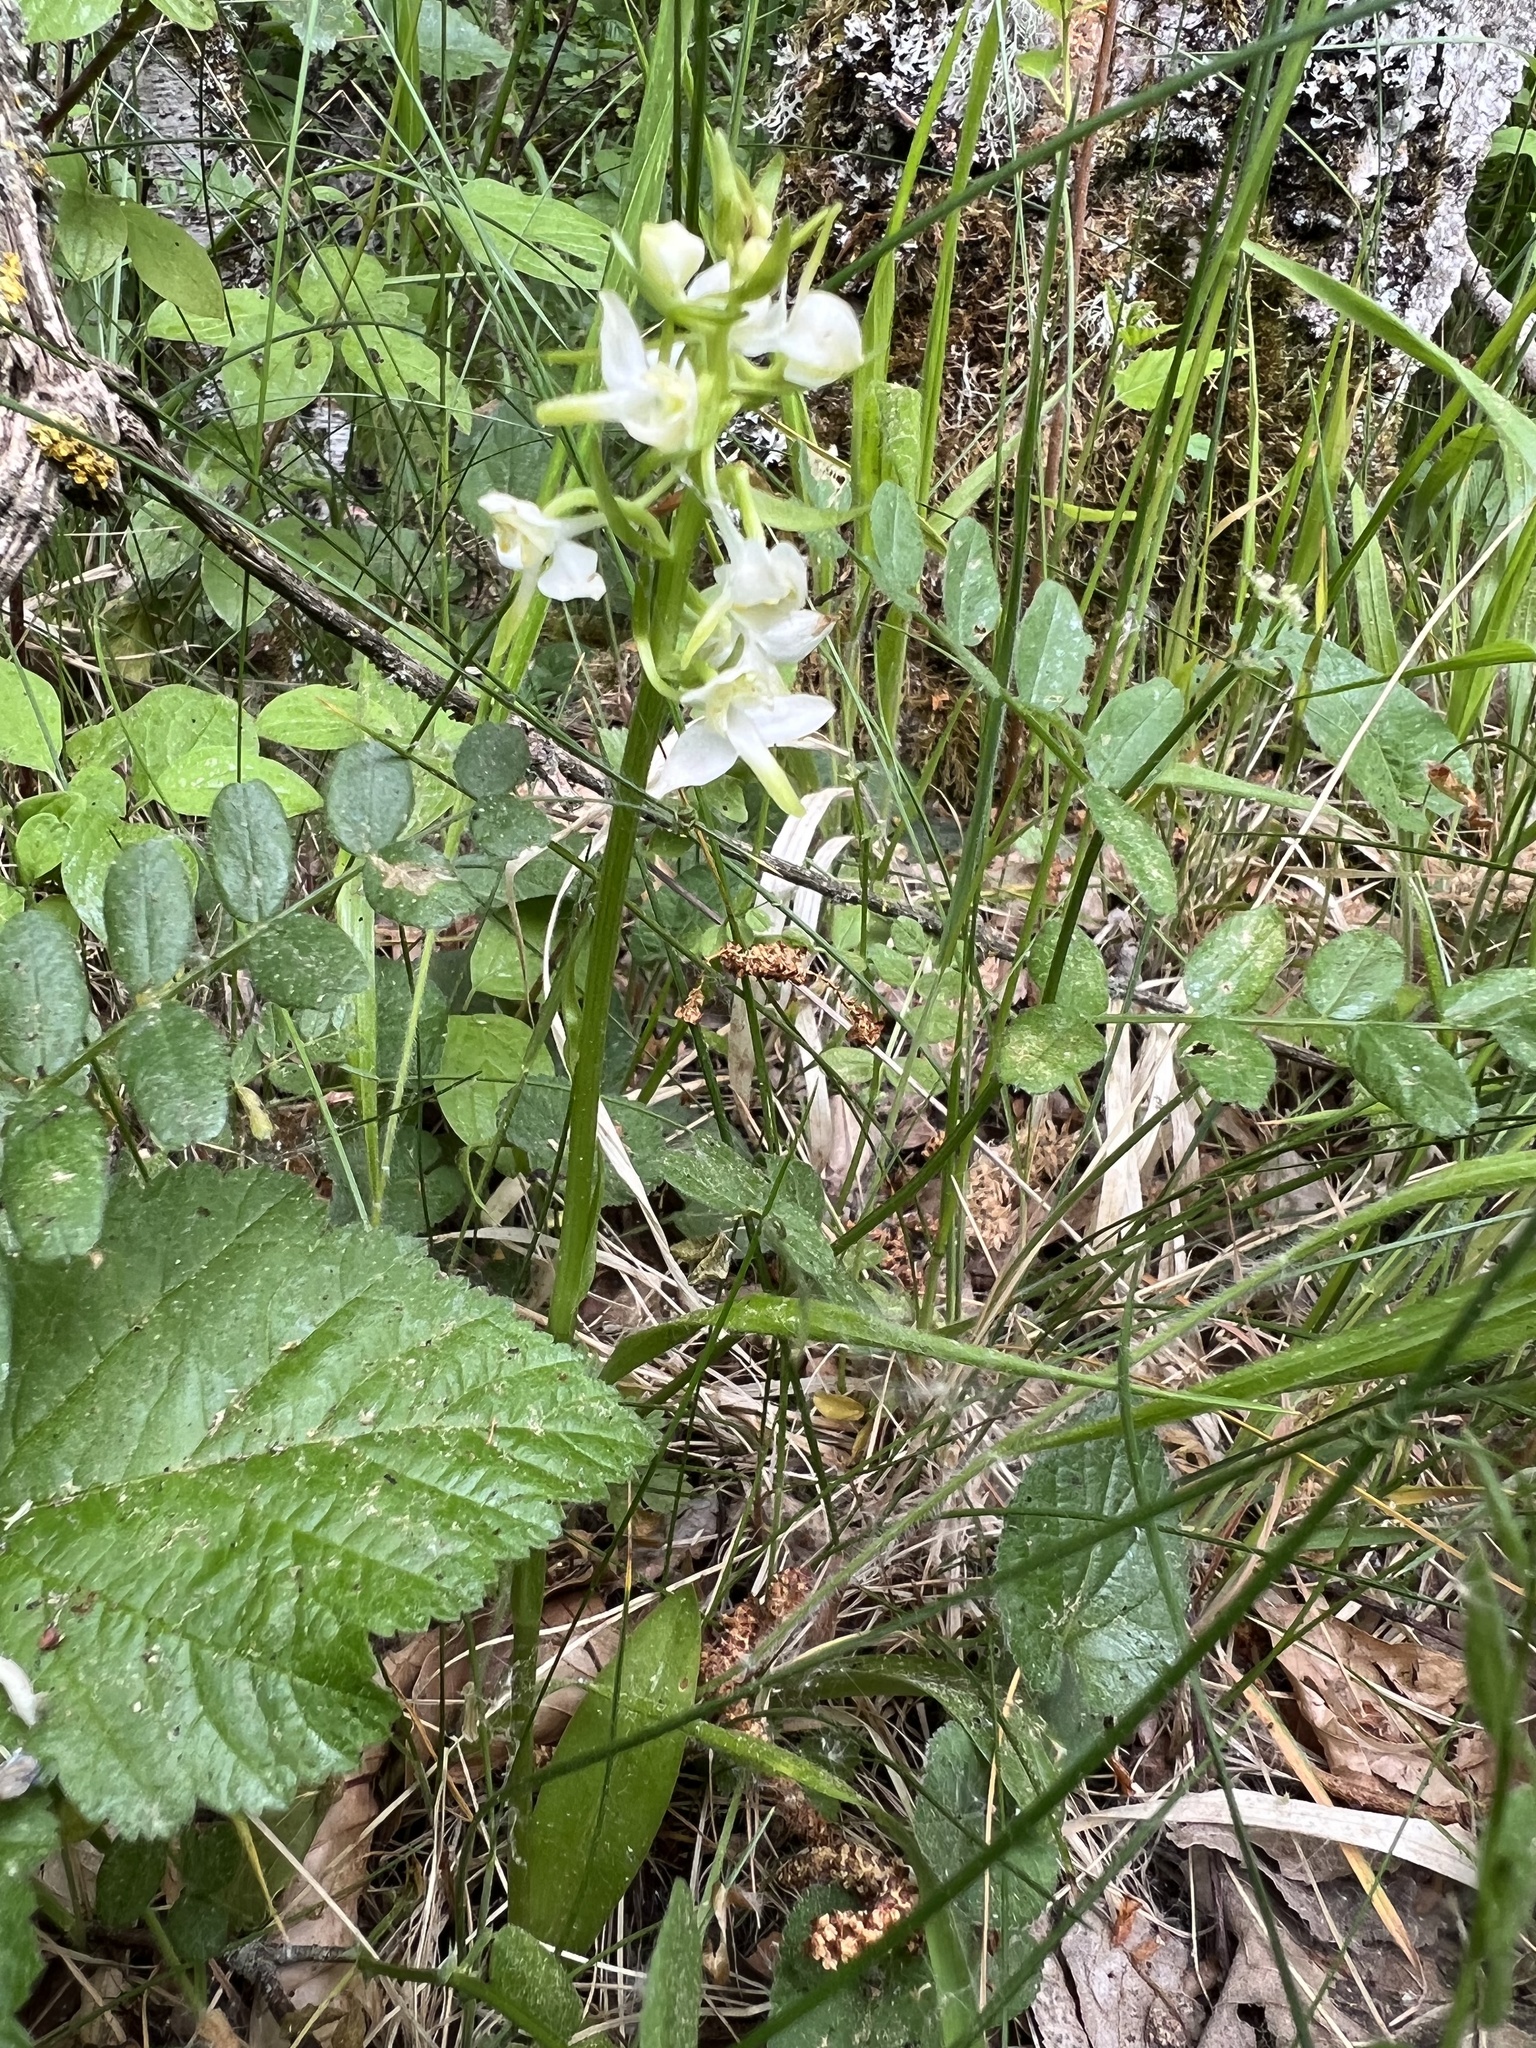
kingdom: Plantae
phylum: Tracheophyta
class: Liliopsida
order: Asparagales
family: Orchidaceae
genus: Platanthera
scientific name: Platanthera chlorantha
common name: Greater butterfly-orchid
